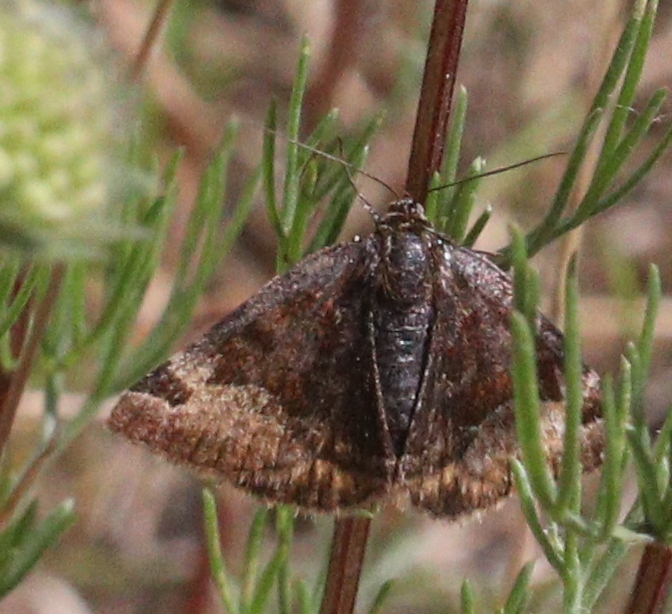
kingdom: Animalia
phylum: Arthropoda
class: Insecta
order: Lepidoptera
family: Erebidae
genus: Euclidia
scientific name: Euclidia glyphica
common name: Burnet companion
